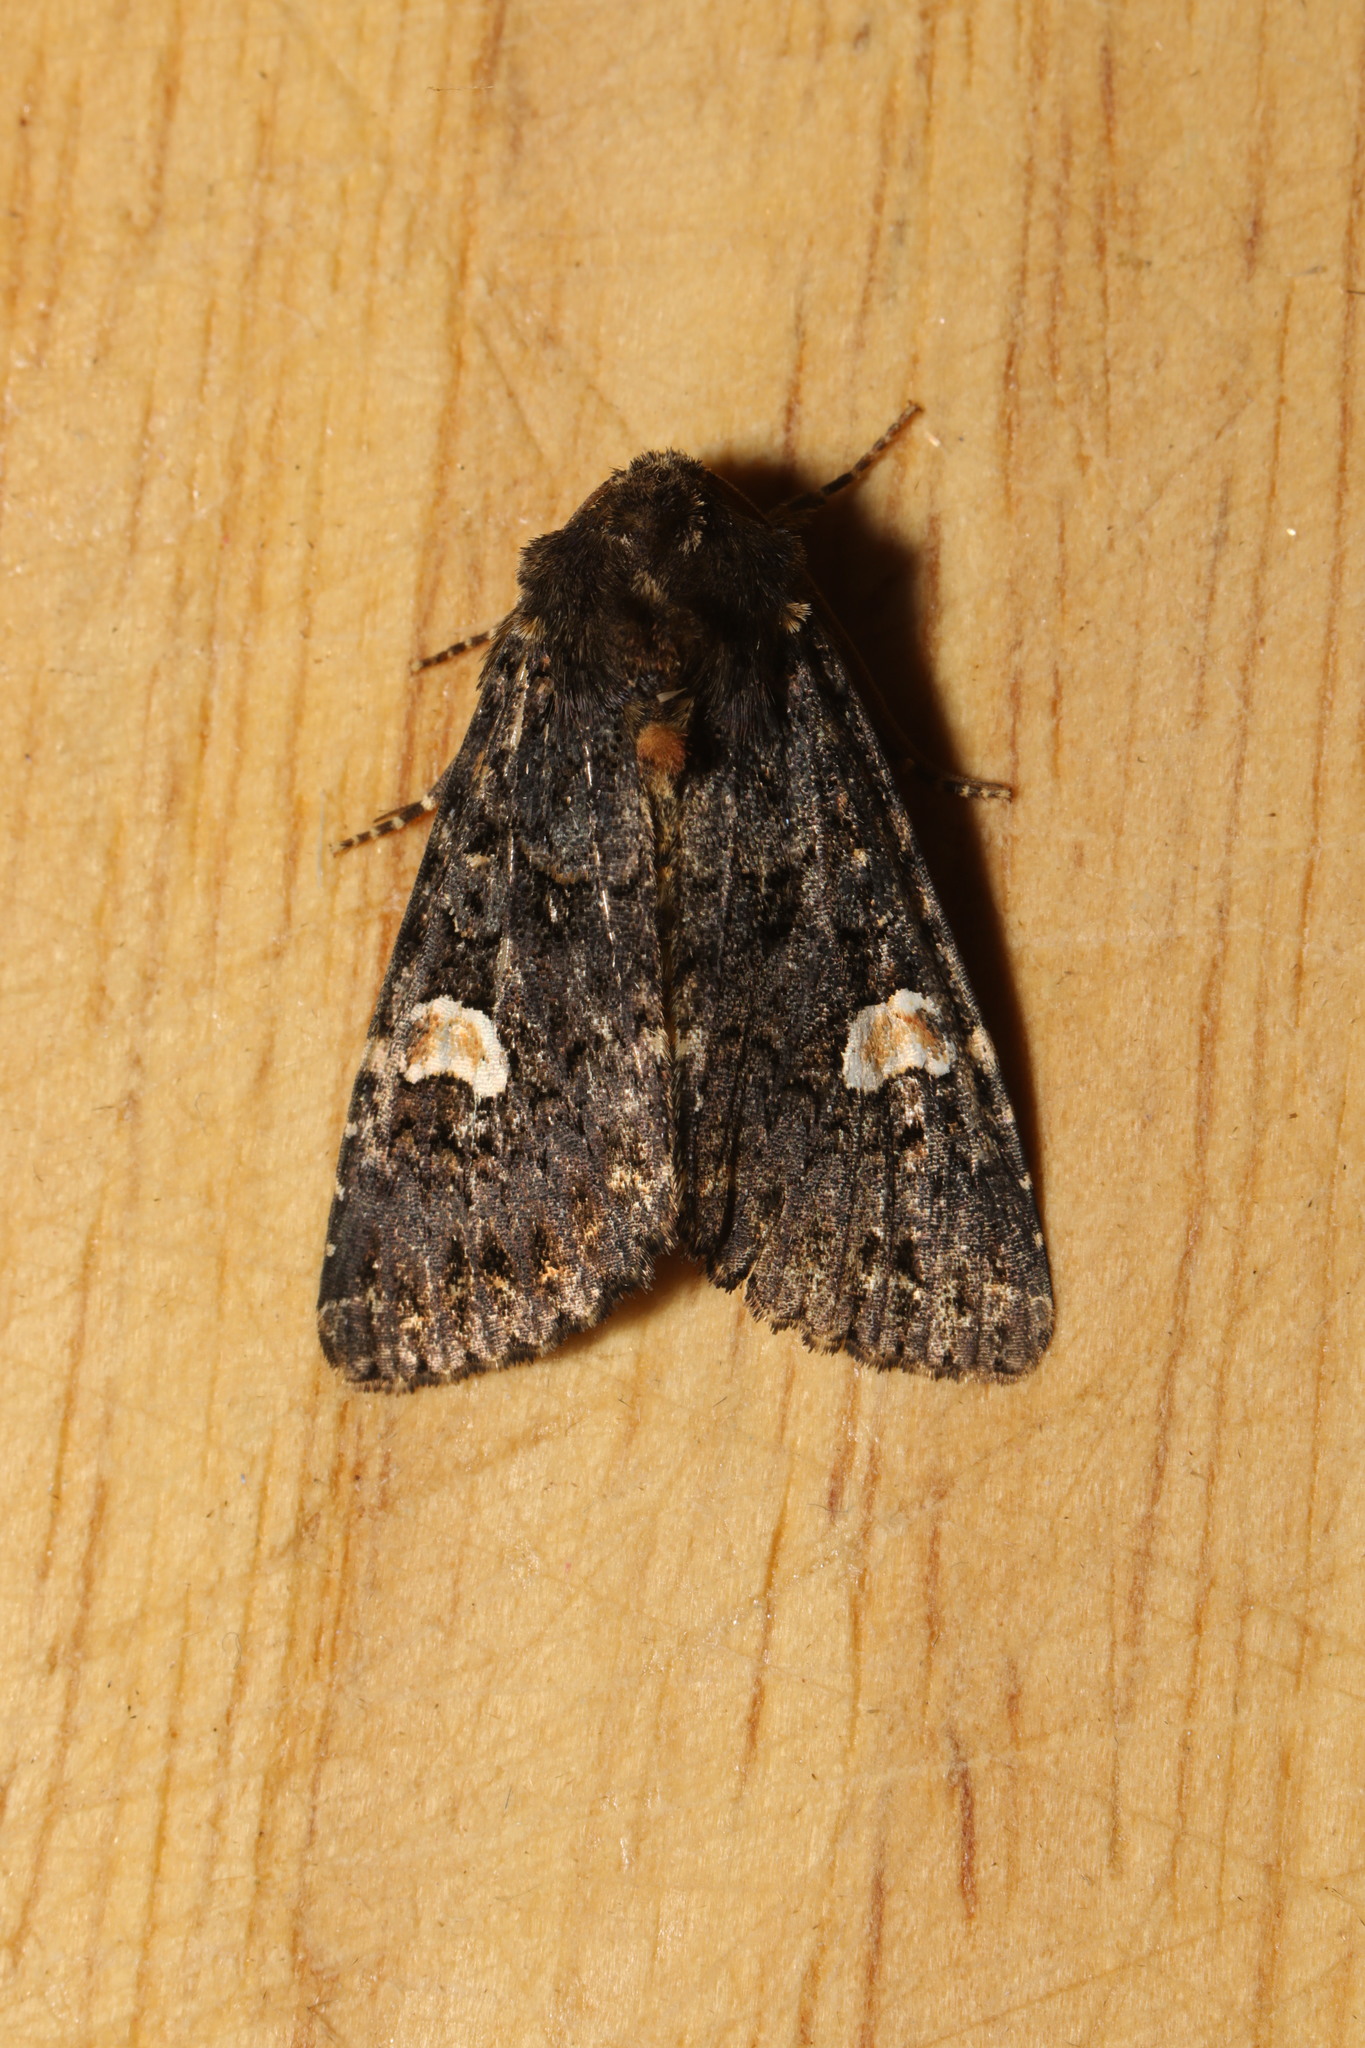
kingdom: Animalia
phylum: Arthropoda
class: Insecta
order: Lepidoptera
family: Noctuidae
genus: Melanchra
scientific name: Melanchra persicariae
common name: Dot moth
